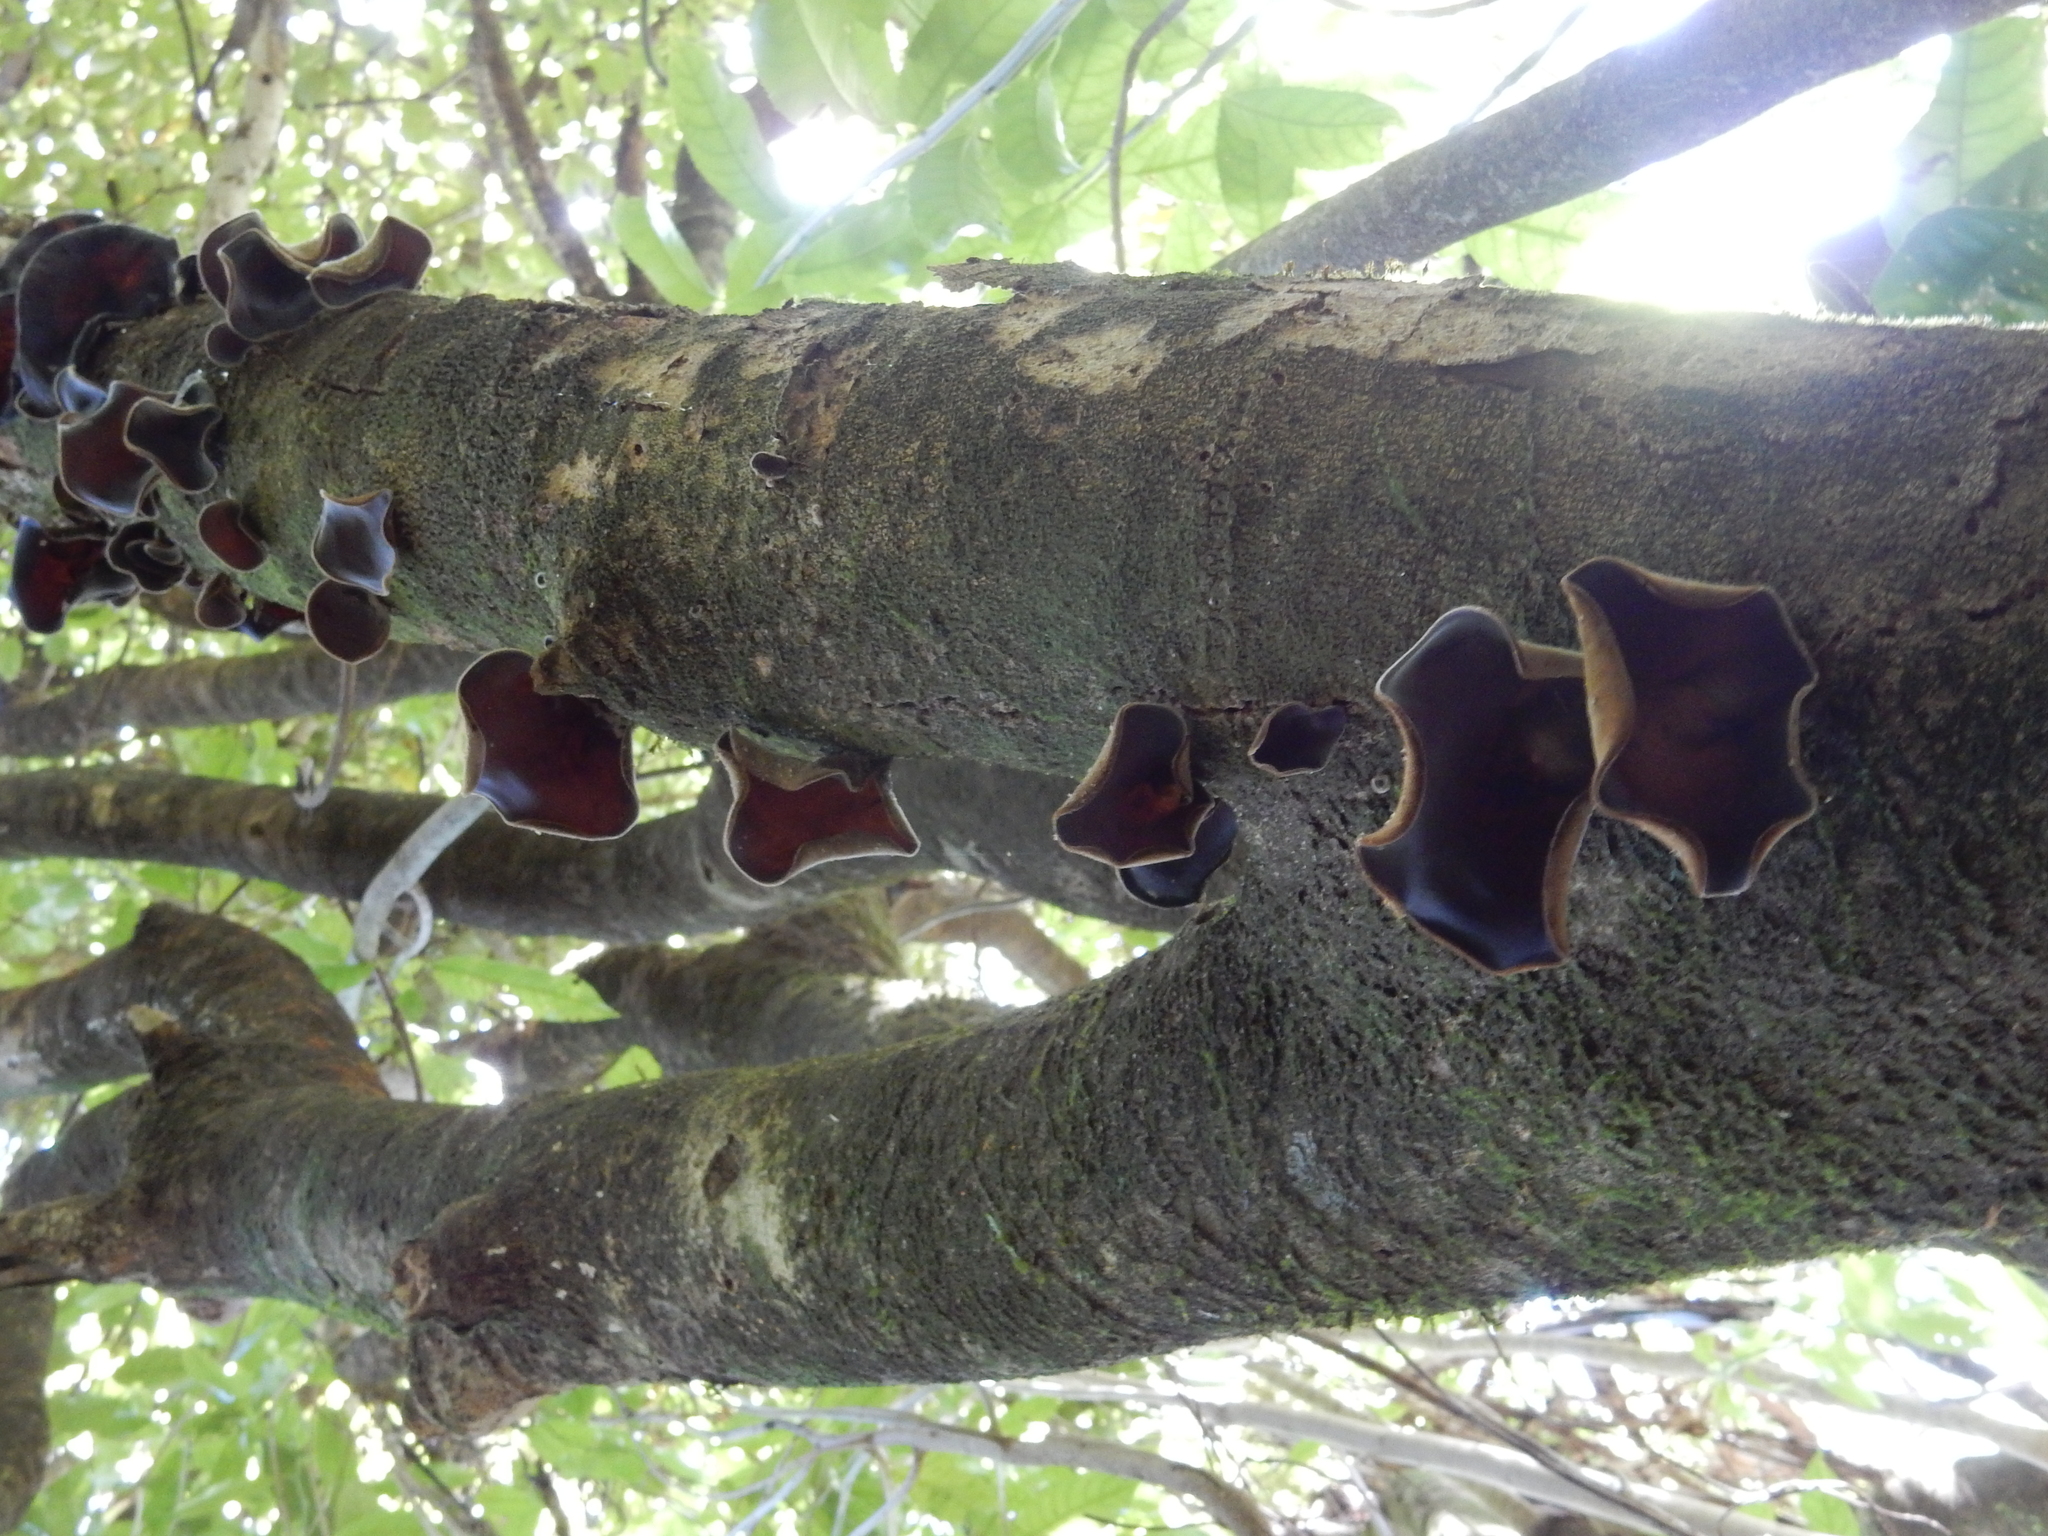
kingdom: Fungi
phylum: Basidiomycota
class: Agaricomycetes
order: Auriculariales
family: Auriculariaceae
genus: Auricularia
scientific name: Auricularia cornea
